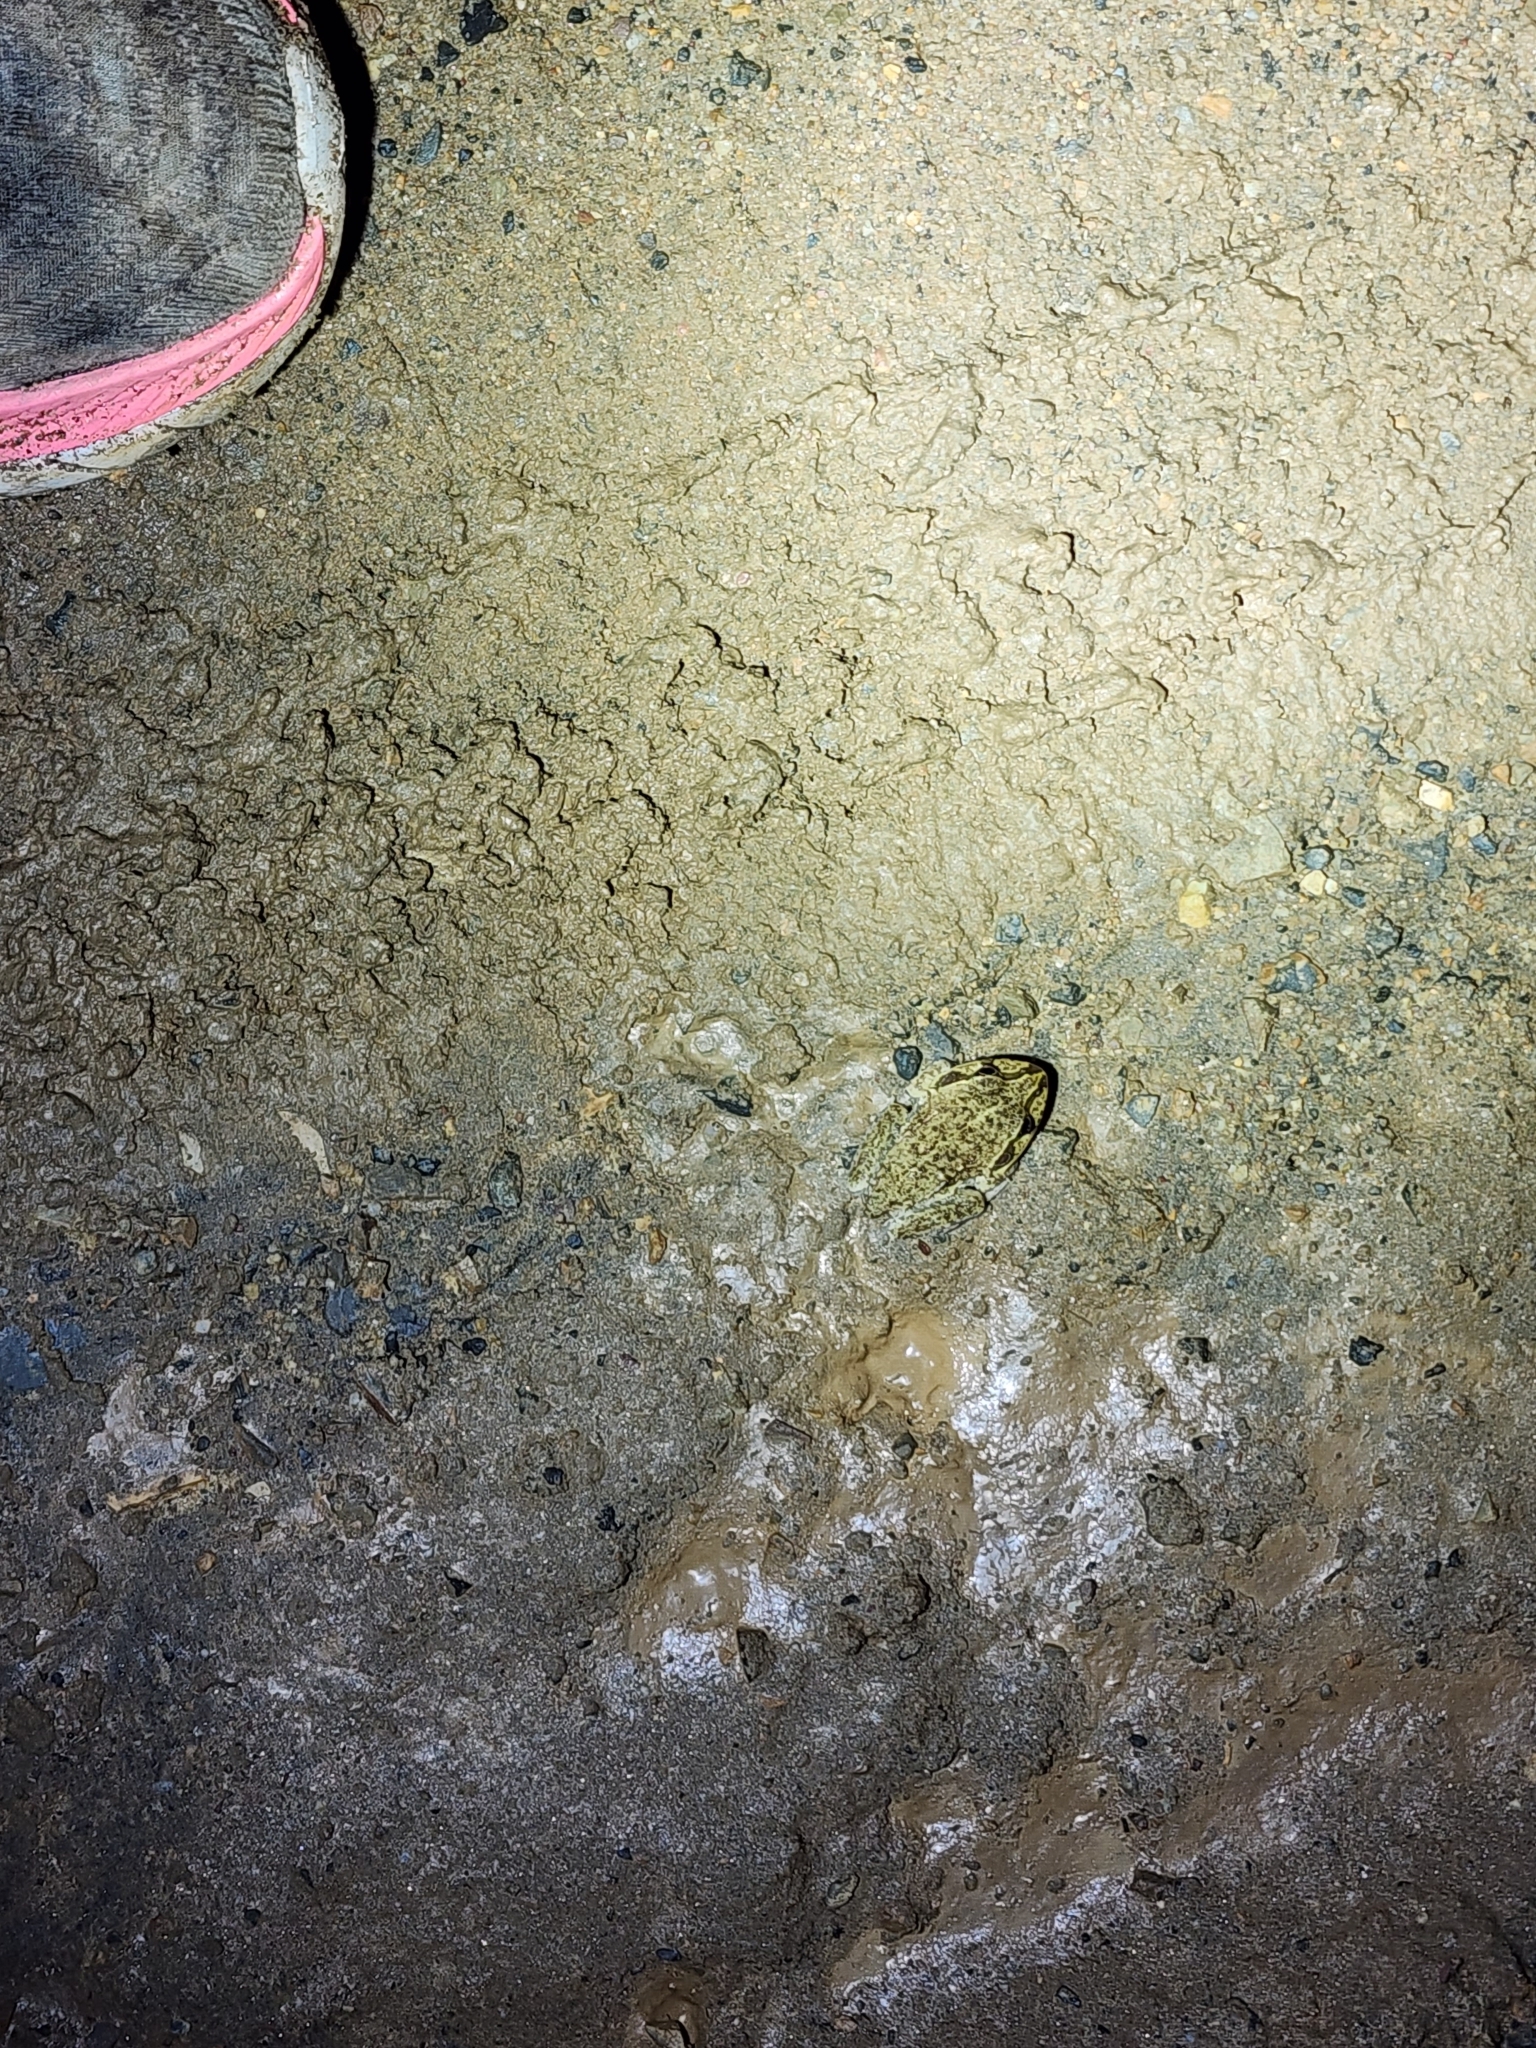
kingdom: Animalia
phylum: Chordata
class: Amphibia
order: Anura
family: Pelodryadidae
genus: Ranoidea
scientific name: Ranoidea novaehollandiae
